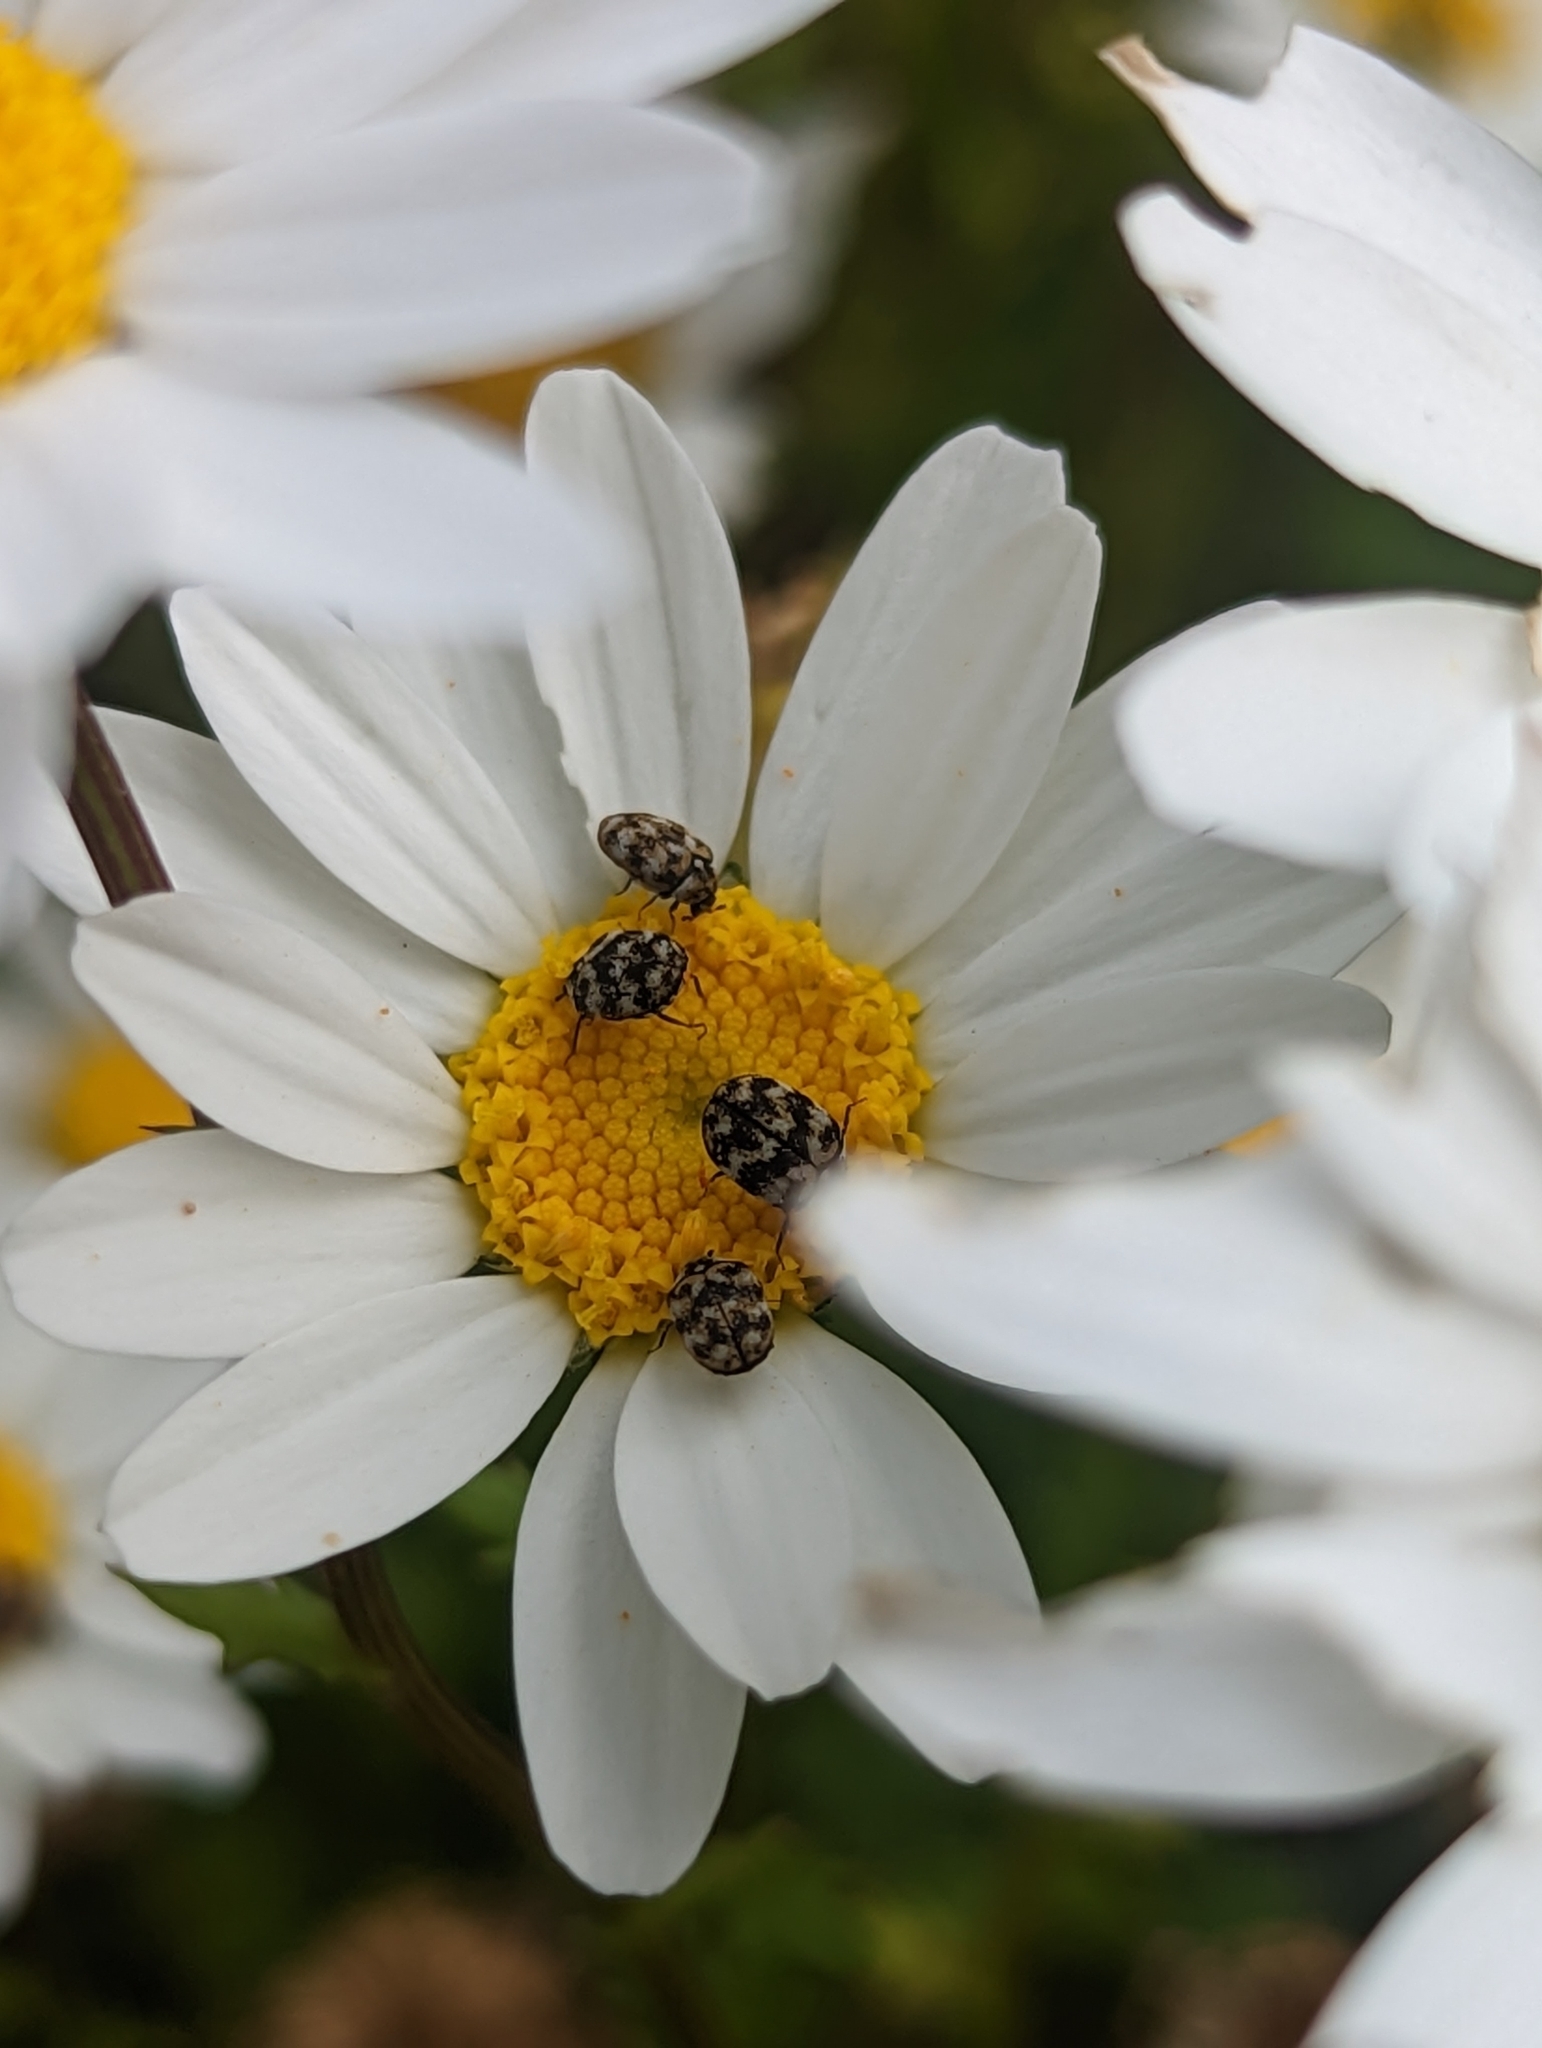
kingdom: Animalia
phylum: Arthropoda
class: Insecta
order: Coleoptera
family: Dermestidae
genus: Anthrenus
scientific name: Anthrenus verbasci
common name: Varied carpet beetle
